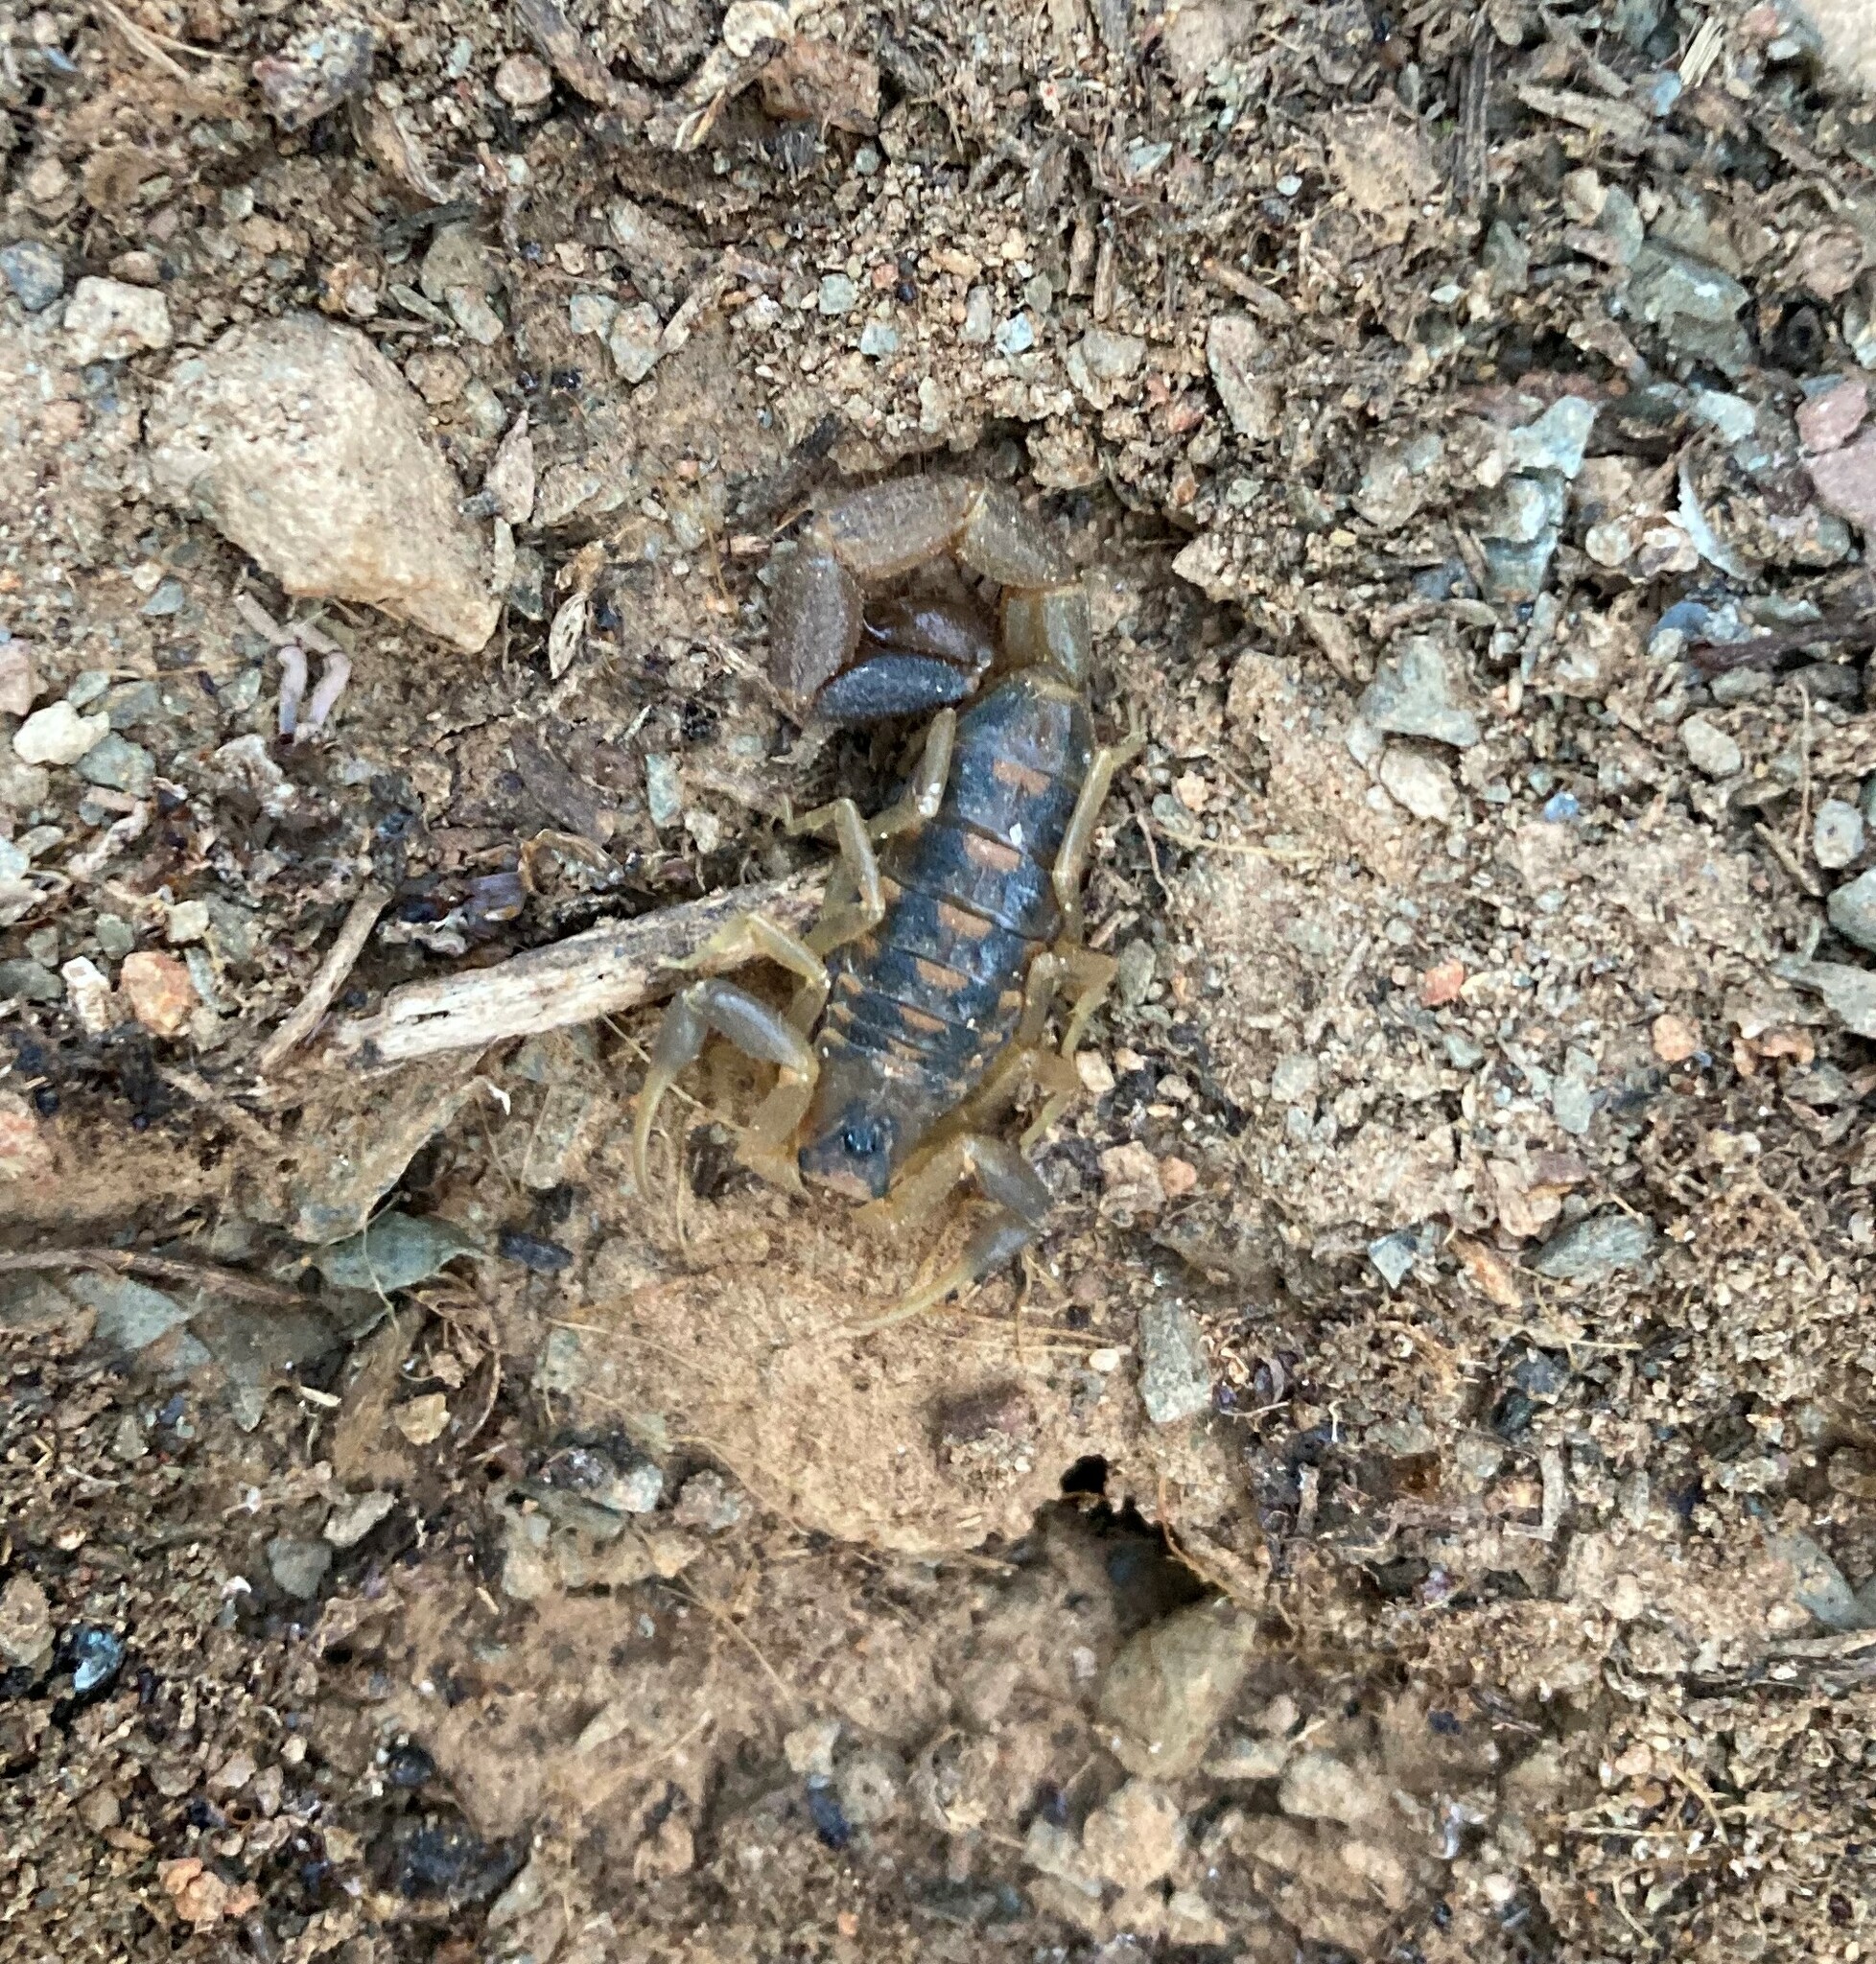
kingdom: Animalia
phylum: Arthropoda
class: Arachnida
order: Scorpiones
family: Buthidae
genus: Uroplectes
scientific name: Uroplectes triangulifer
